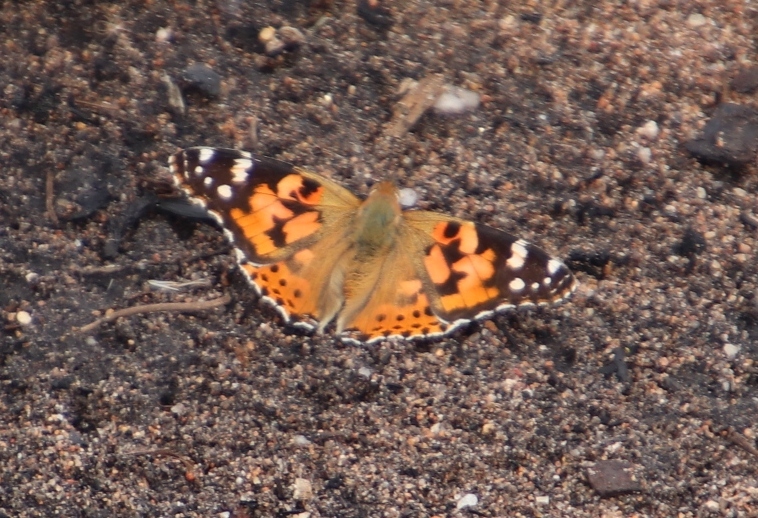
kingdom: Animalia
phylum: Arthropoda
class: Insecta
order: Lepidoptera
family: Nymphalidae
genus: Vanessa
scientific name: Vanessa cardui
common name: Painted lady
